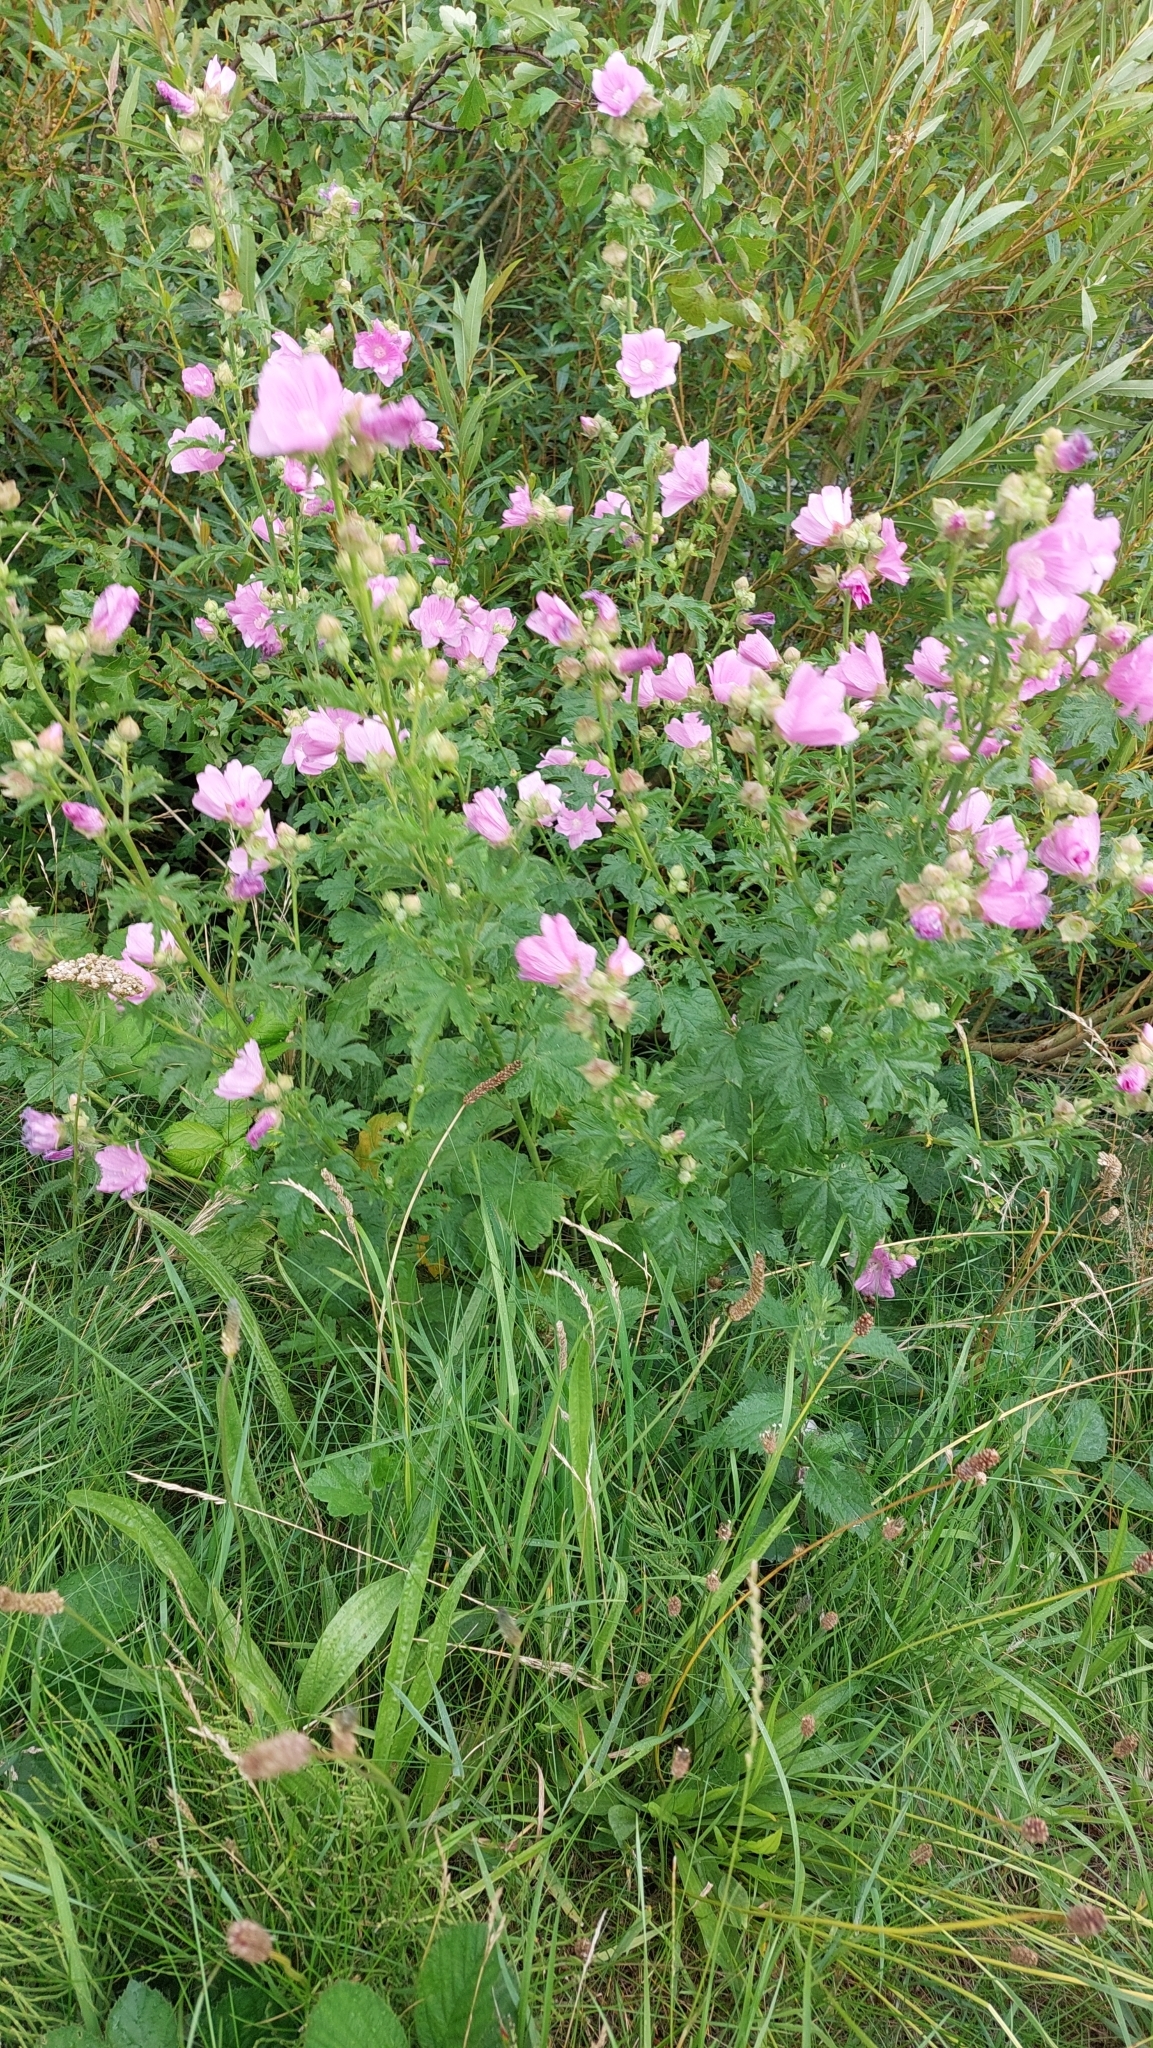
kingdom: Plantae
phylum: Tracheophyta
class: Magnoliopsida
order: Malvales
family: Malvaceae
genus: Malva
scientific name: Malva moschata
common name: Musk mallow
